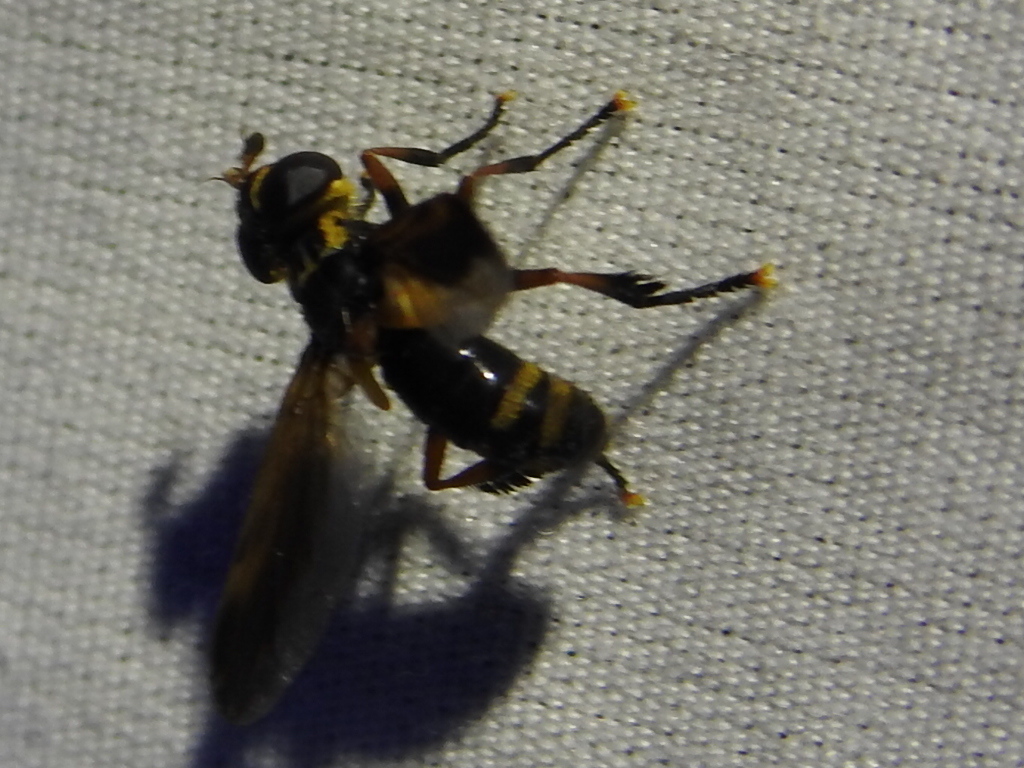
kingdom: Animalia
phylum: Arthropoda
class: Insecta
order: Diptera
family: Tachinidae
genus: Trichopoda
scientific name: Trichopoda plumipes
